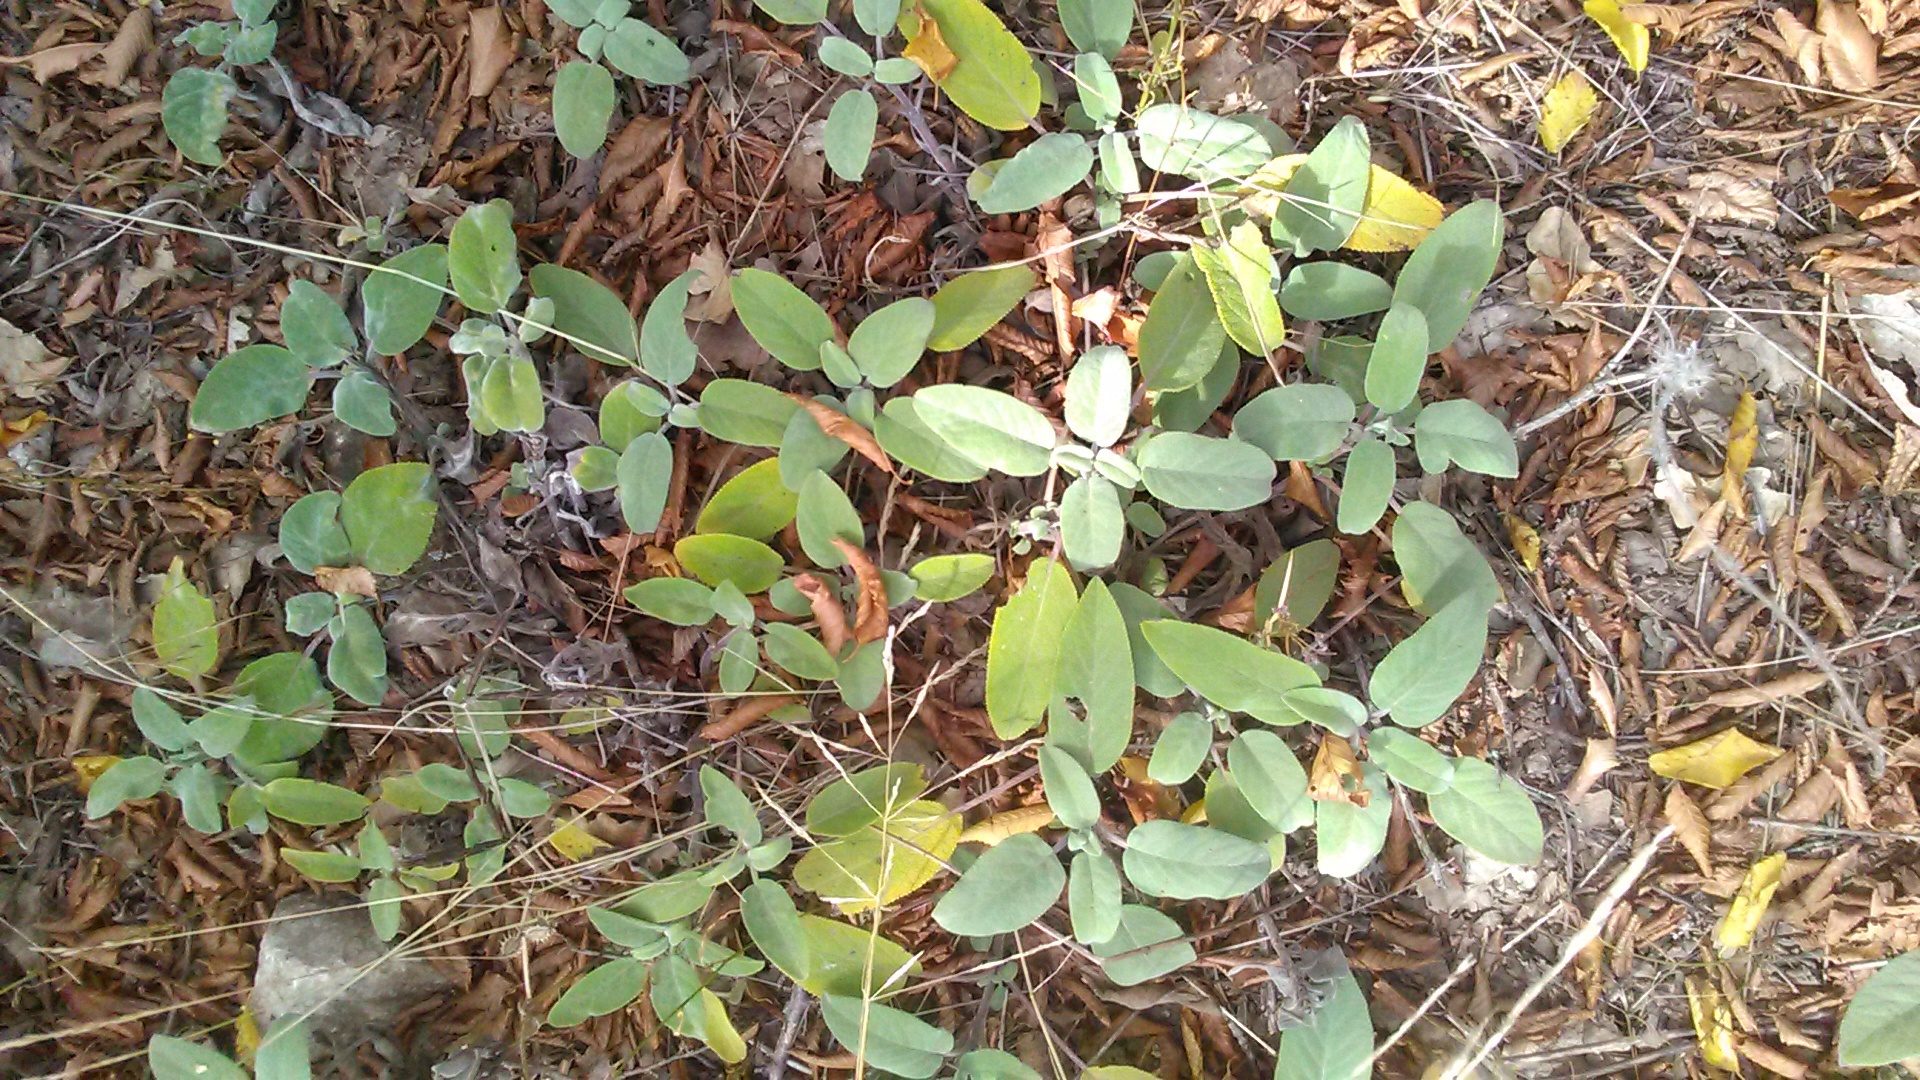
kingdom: Plantae
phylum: Tracheophyta
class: Magnoliopsida
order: Lamiales
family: Lamiaceae
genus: Salvia
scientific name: Salvia tomentosa
